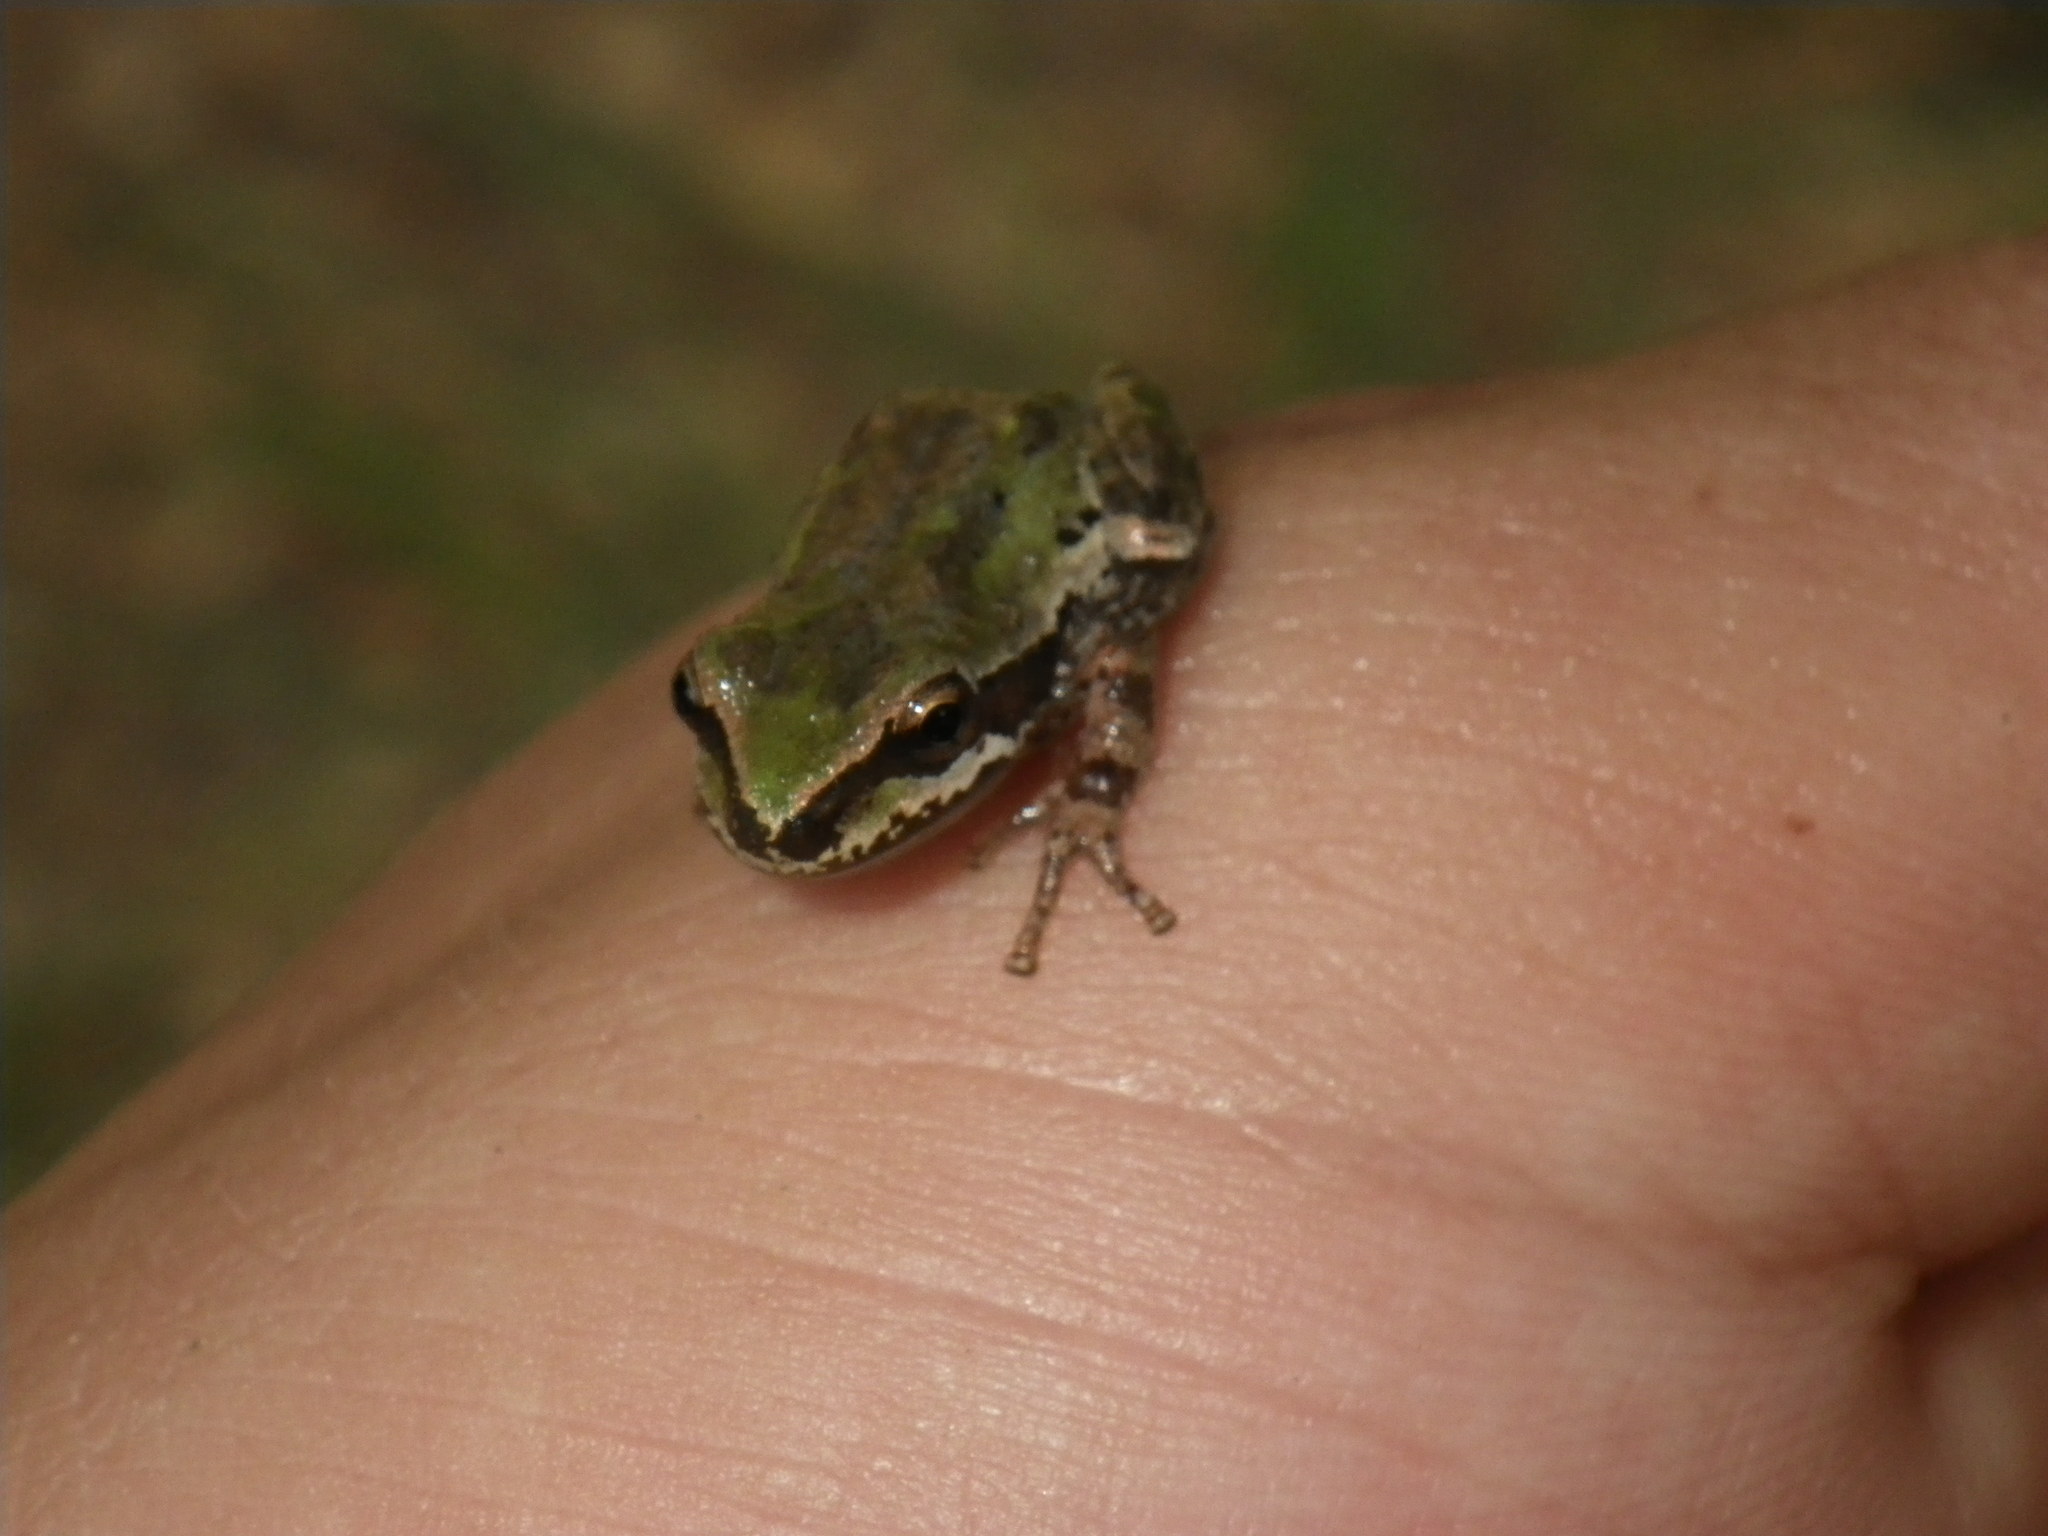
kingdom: Animalia
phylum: Chordata
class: Amphibia
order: Anura
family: Hylidae
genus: Pseudacris
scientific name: Pseudacris regilla
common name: Pacific chorus frog
